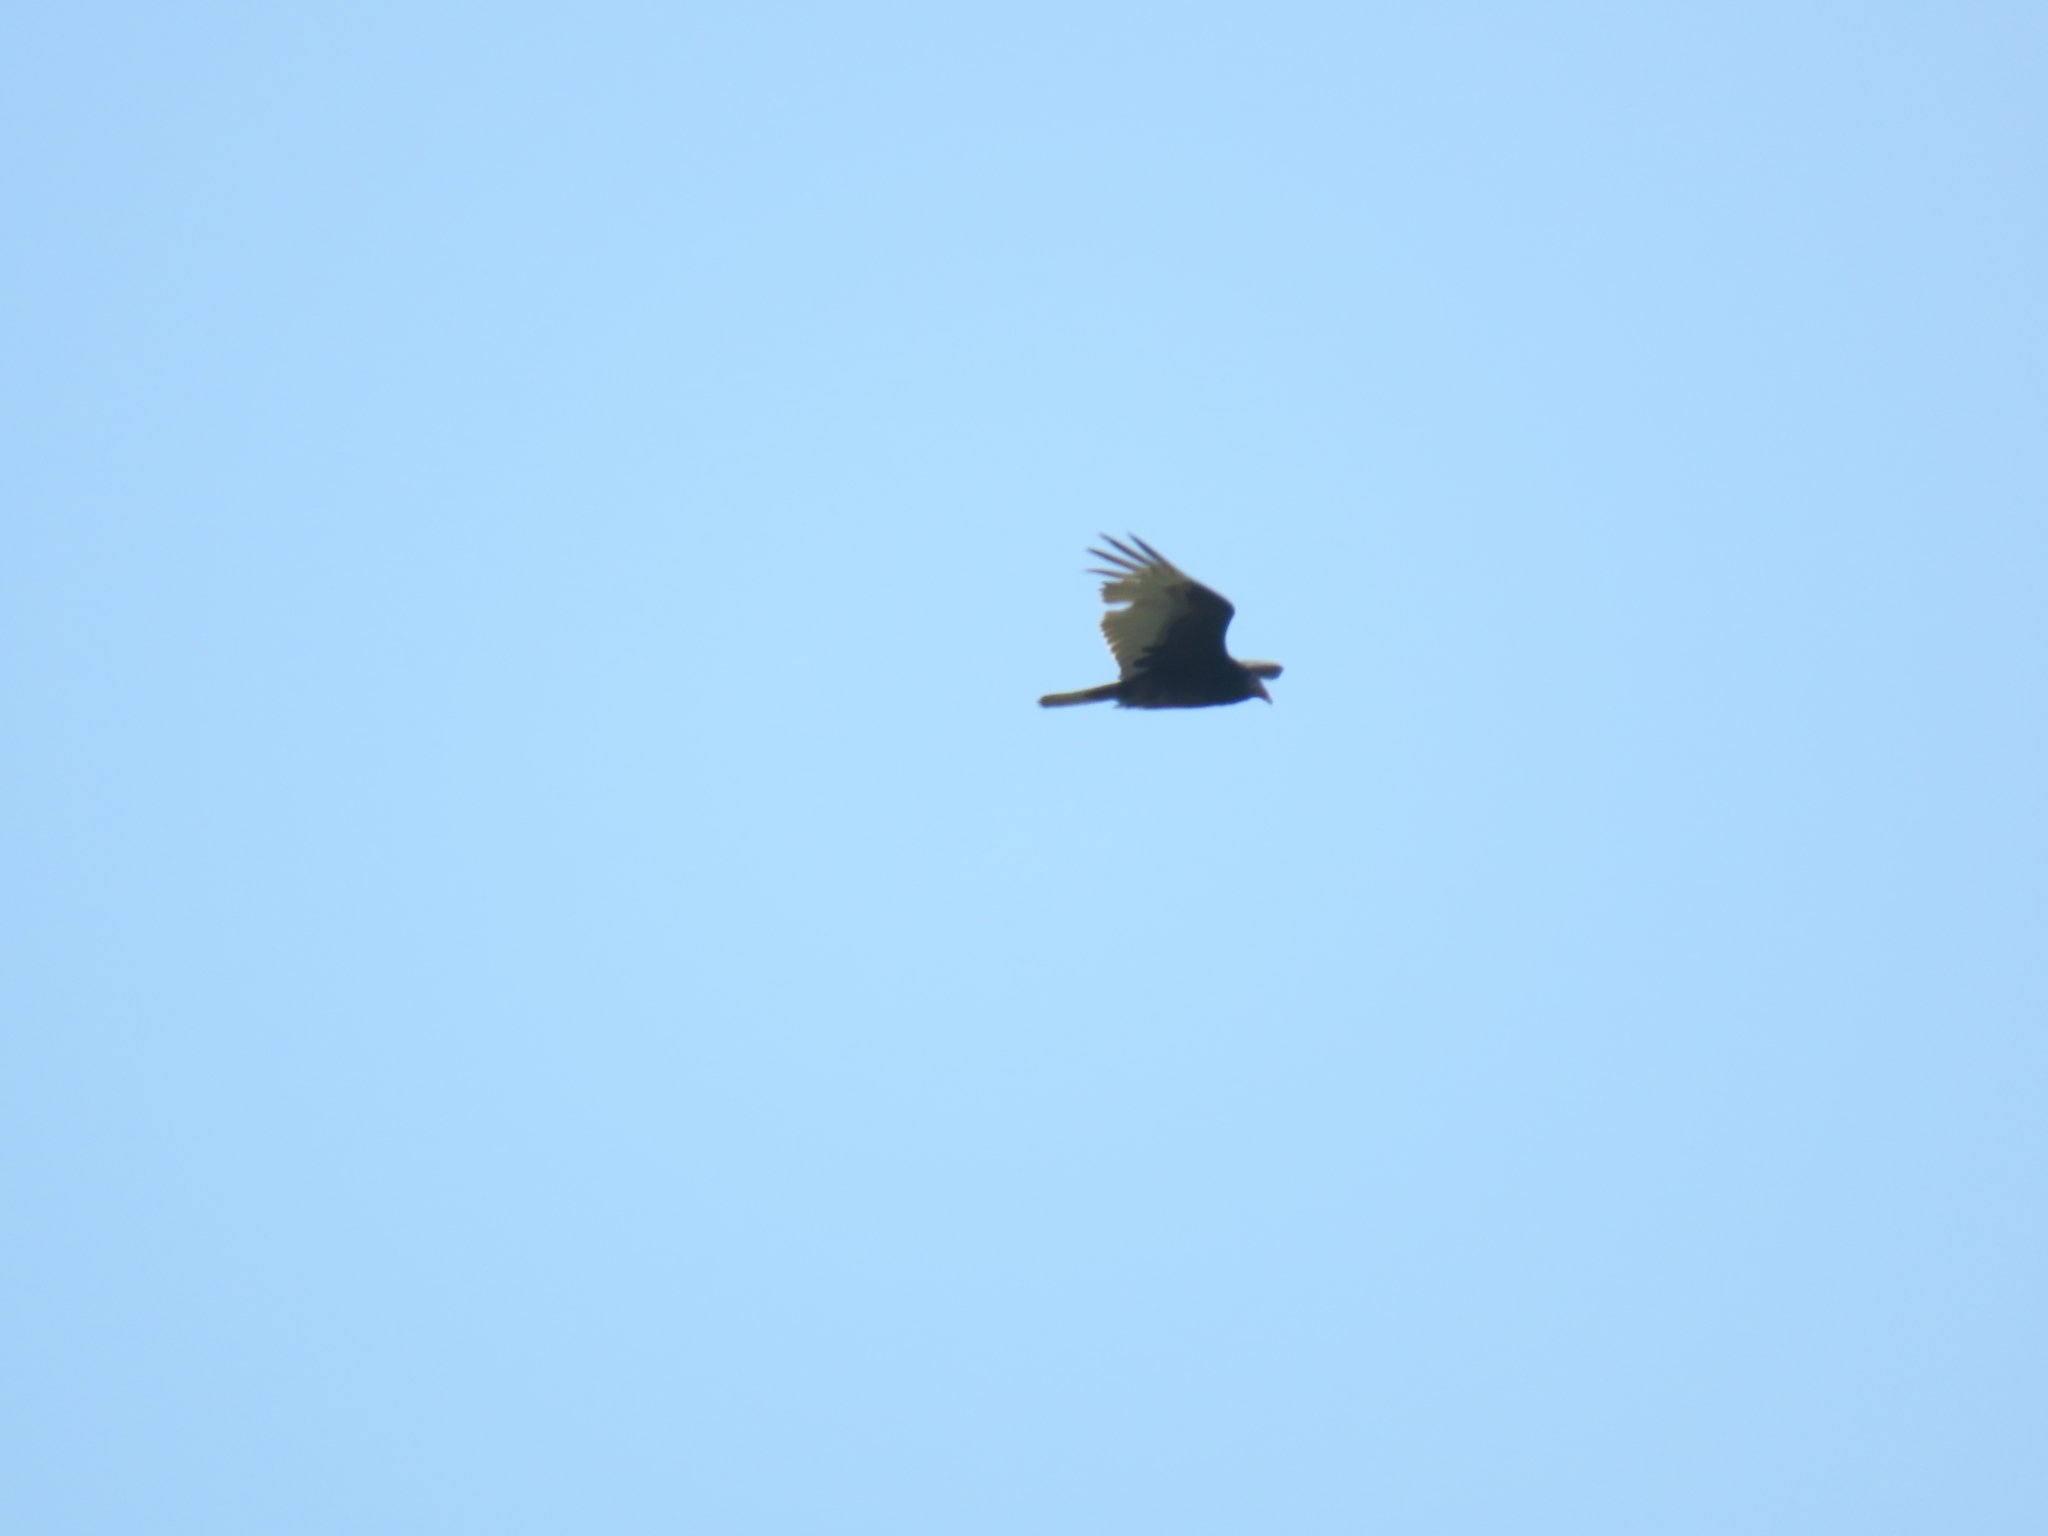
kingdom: Animalia
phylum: Chordata
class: Aves
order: Accipitriformes
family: Cathartidae
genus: Cathartes
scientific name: Cathartes aura
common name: Turkey vulture
